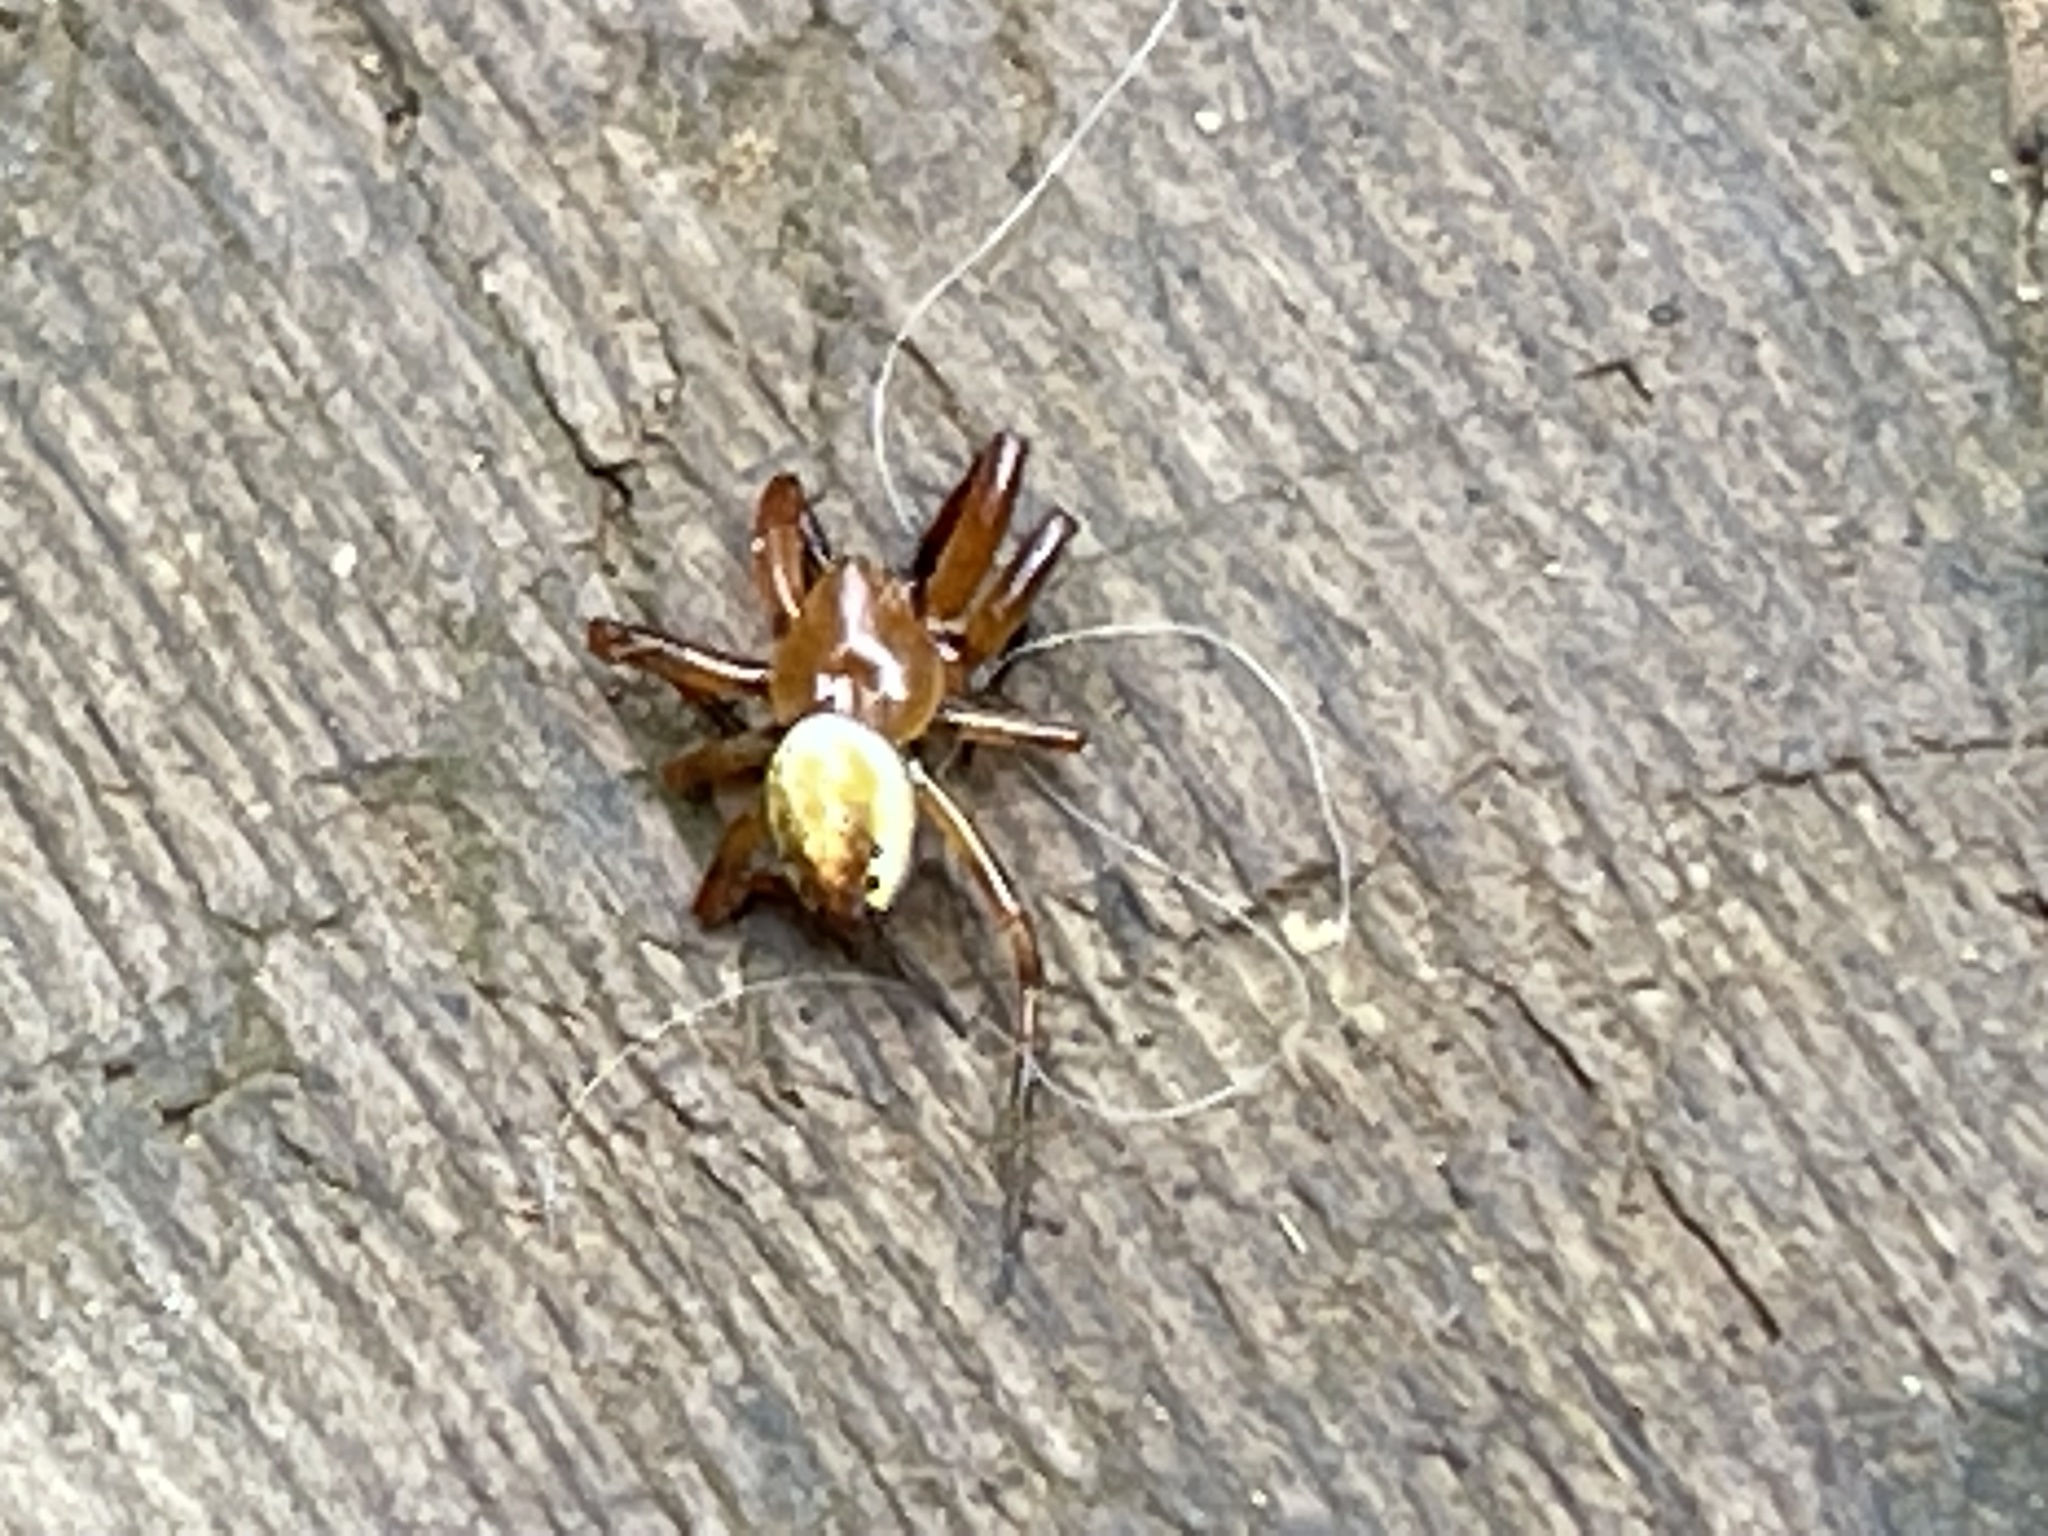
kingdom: Animalia
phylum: Arthropoda
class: Arachnida
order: Araneae
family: Araneidae
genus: Araniella
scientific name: Araniella displicata
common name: Sixspotted orb weaver
